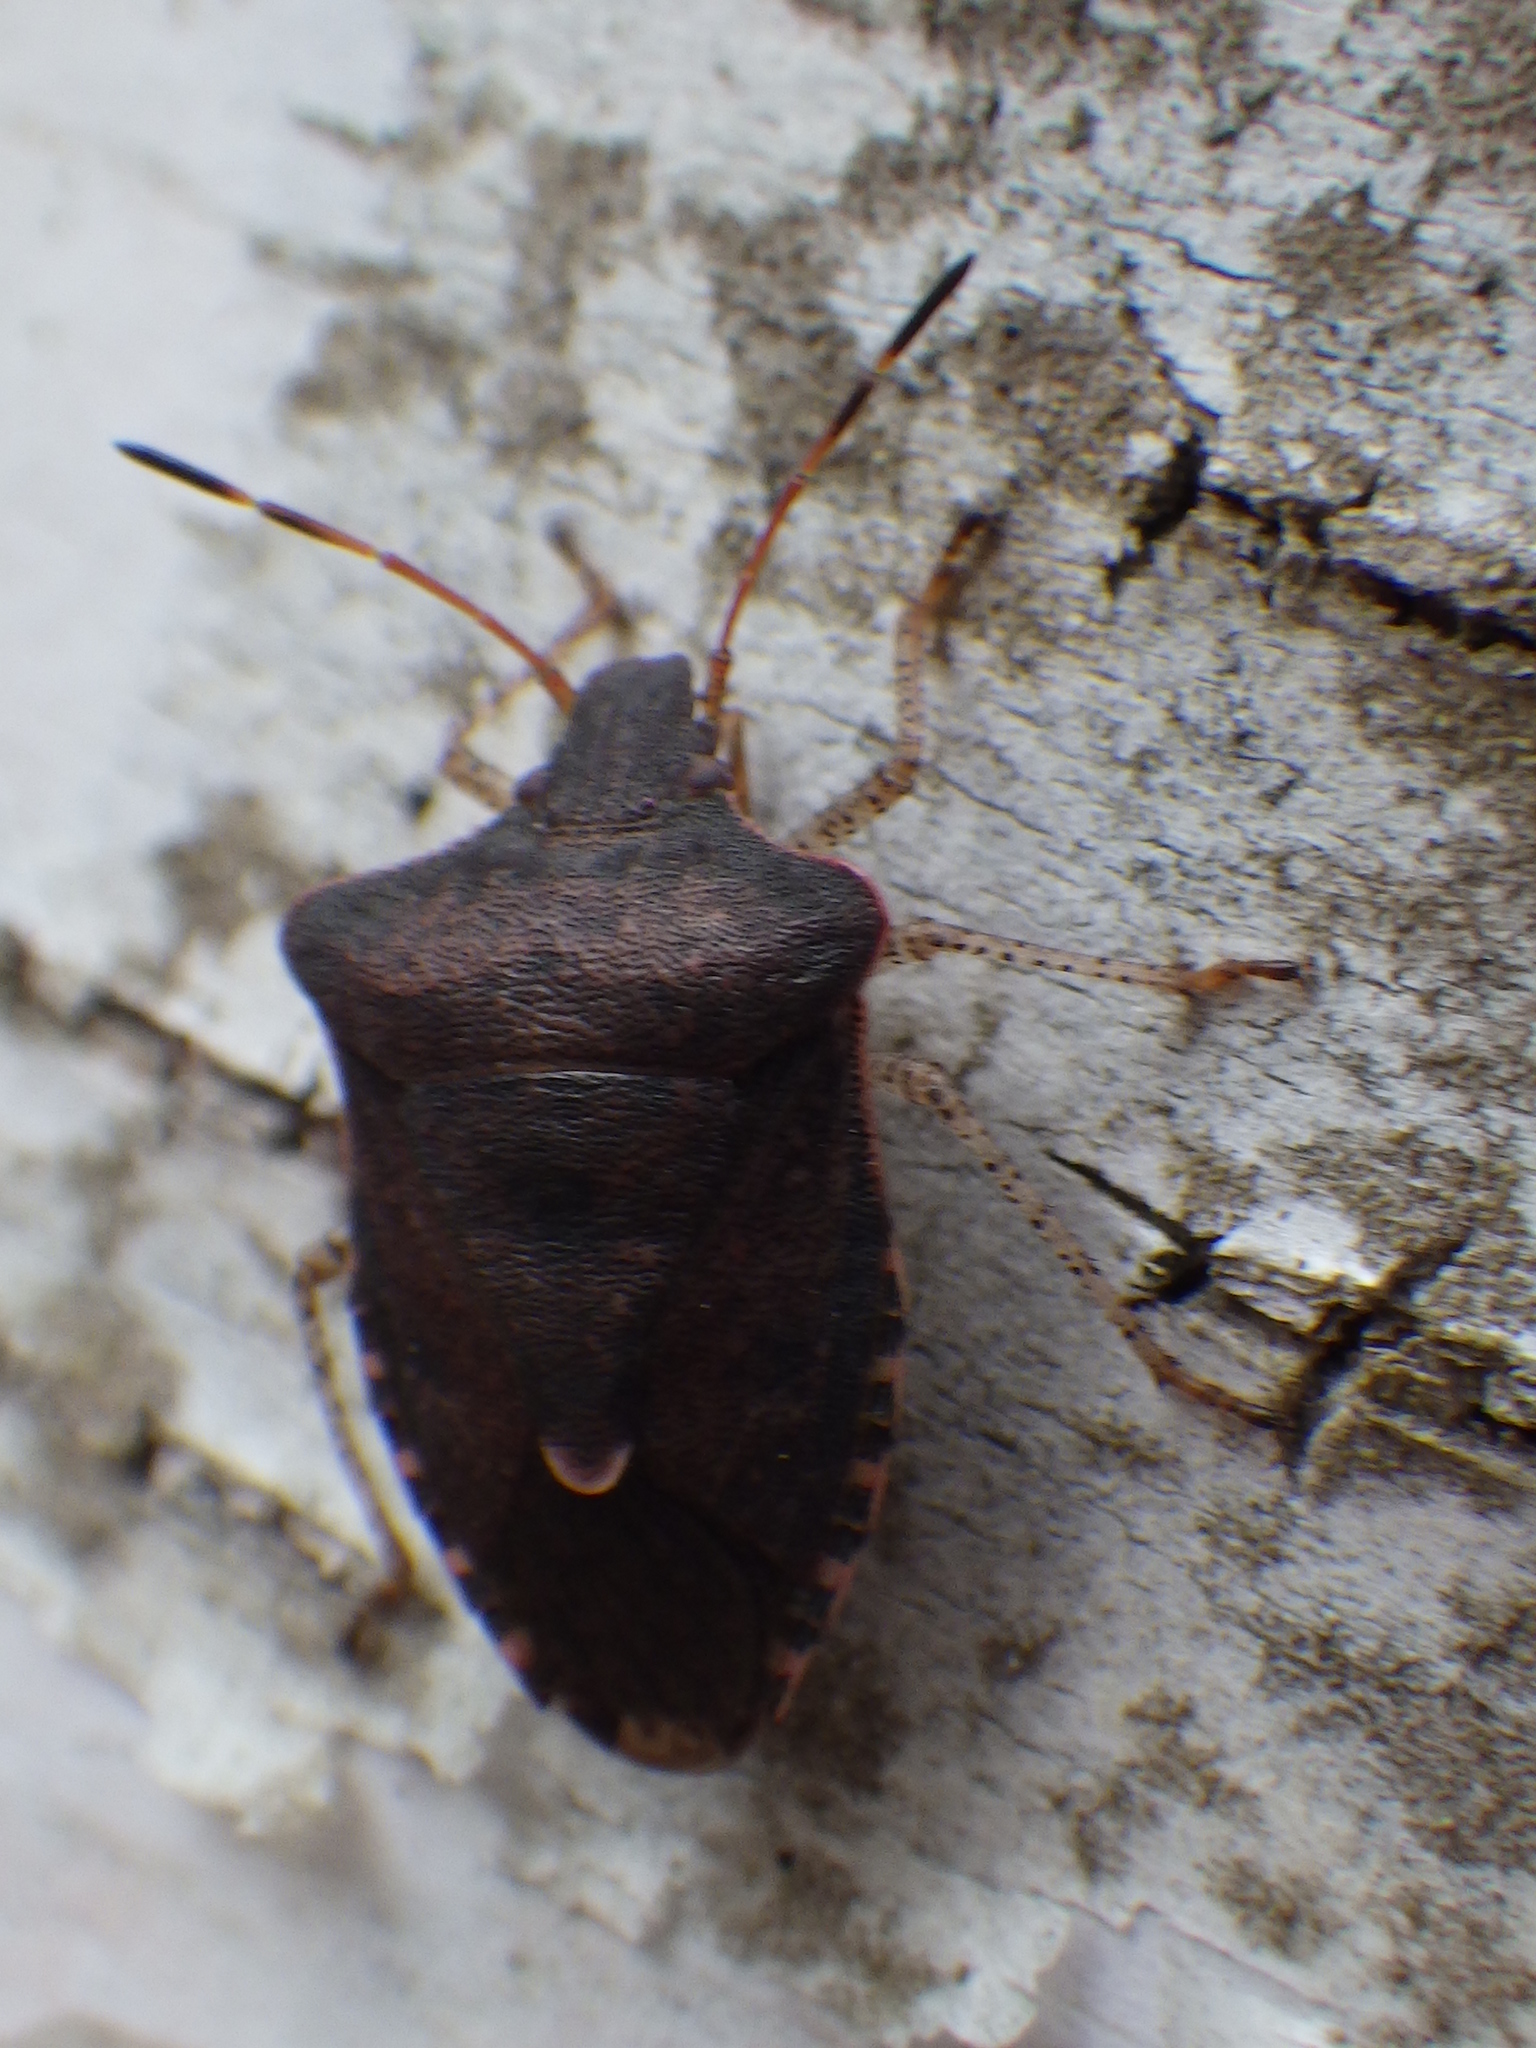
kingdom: Animalia
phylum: Arthropoda
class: Insecta
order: Hemiptera
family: Pentatomidae
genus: Euschistus
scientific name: Euschistus tristigmus
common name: Dusky stink bug
